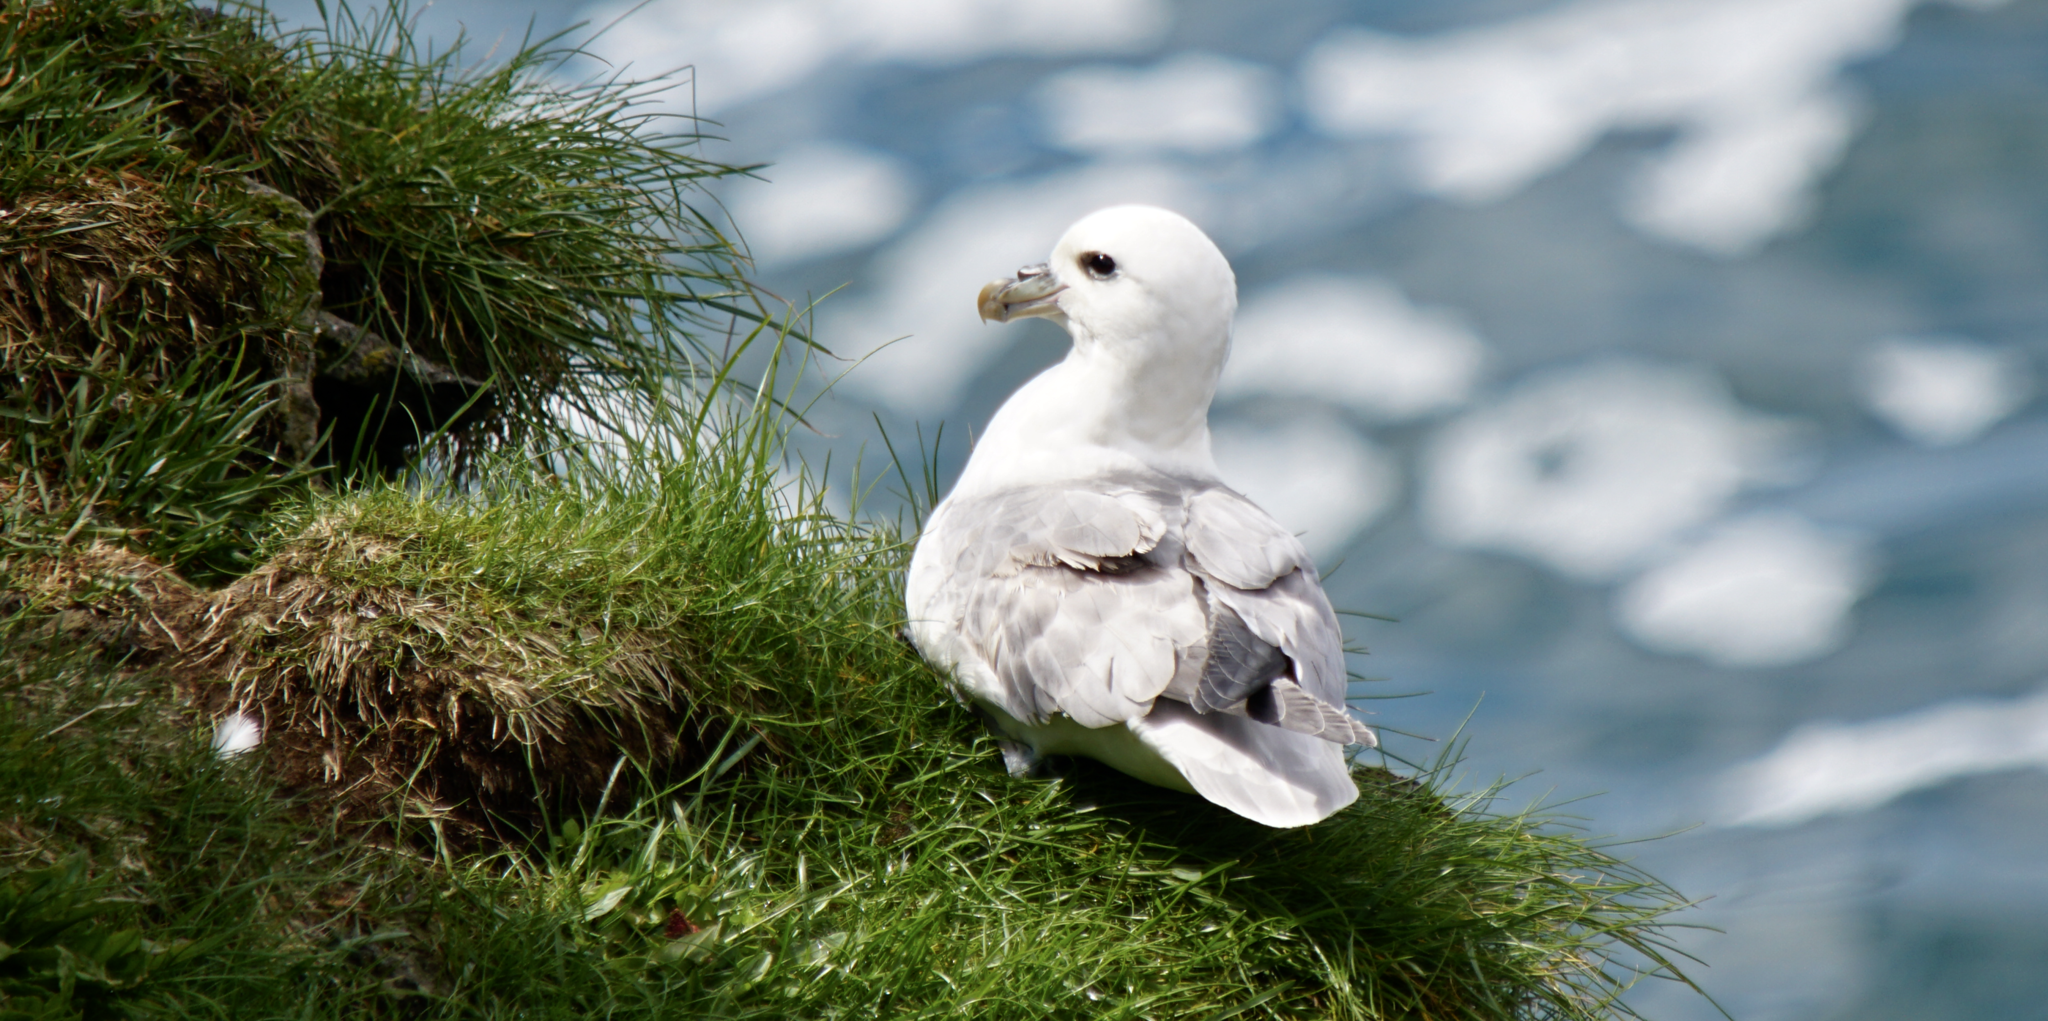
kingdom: Animalia
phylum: Chordata
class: Aves
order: Procellariiformes
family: Procellariidae
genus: Fulmarus
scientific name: Fulmarus glacialis
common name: Northern fulmar
